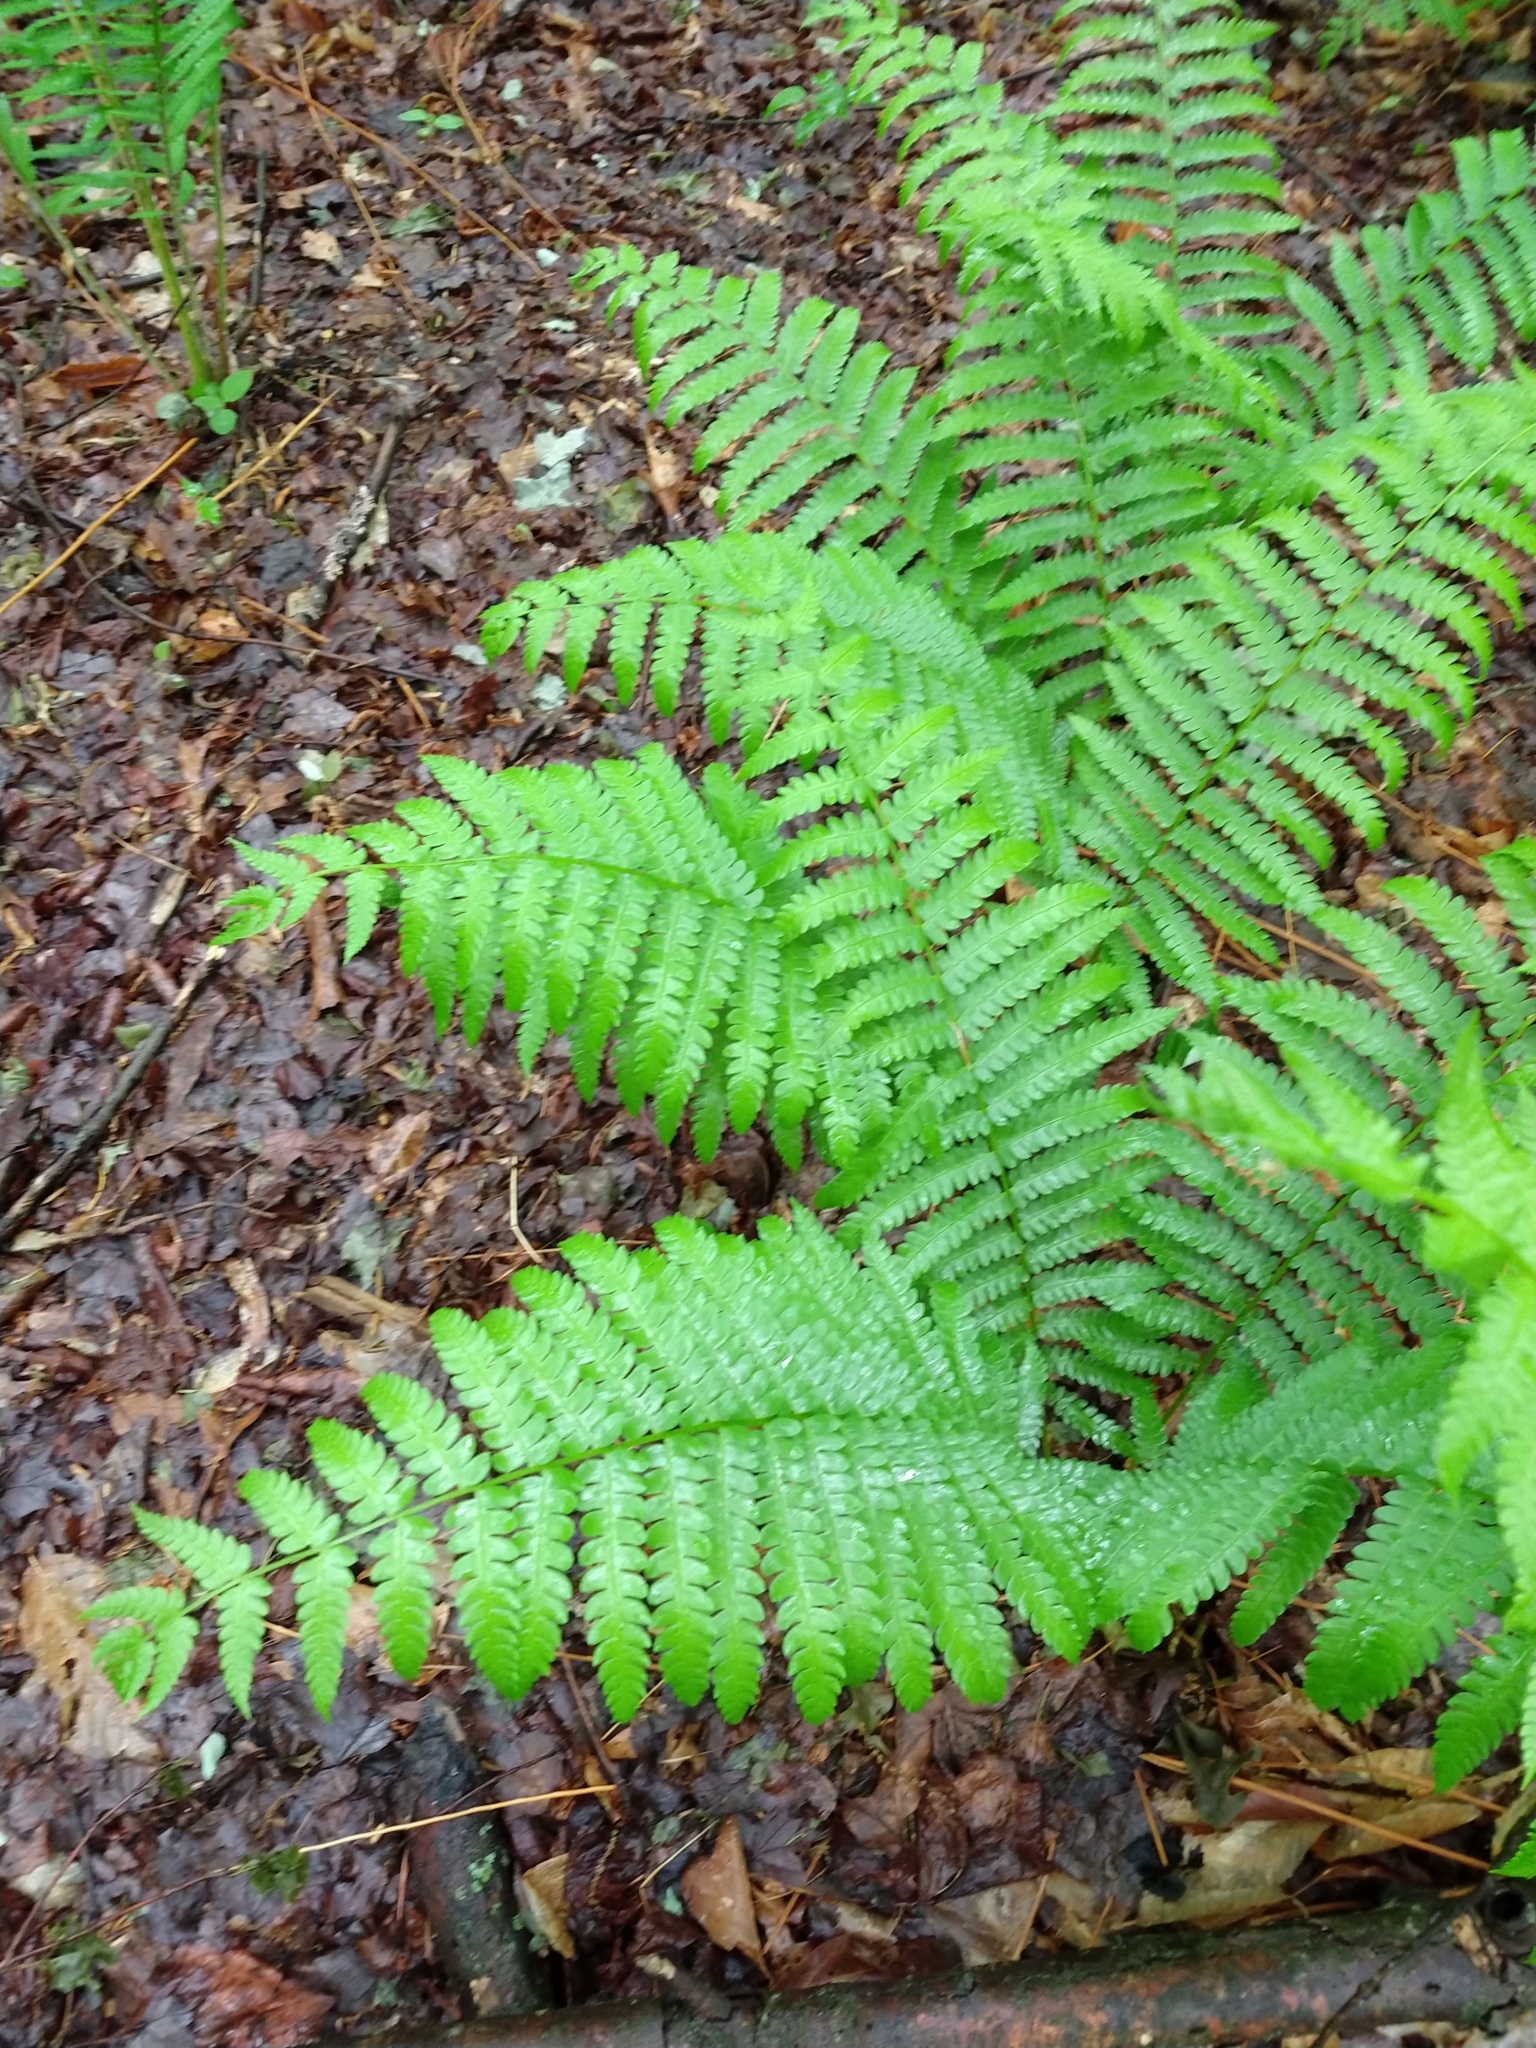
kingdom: Plantae
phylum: Tracheophyta
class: Polypodiopsida
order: Polypodiales
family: Onocleaceae
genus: Matteuccia
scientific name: Matteuccia struthiopteris
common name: Ostrich fern
